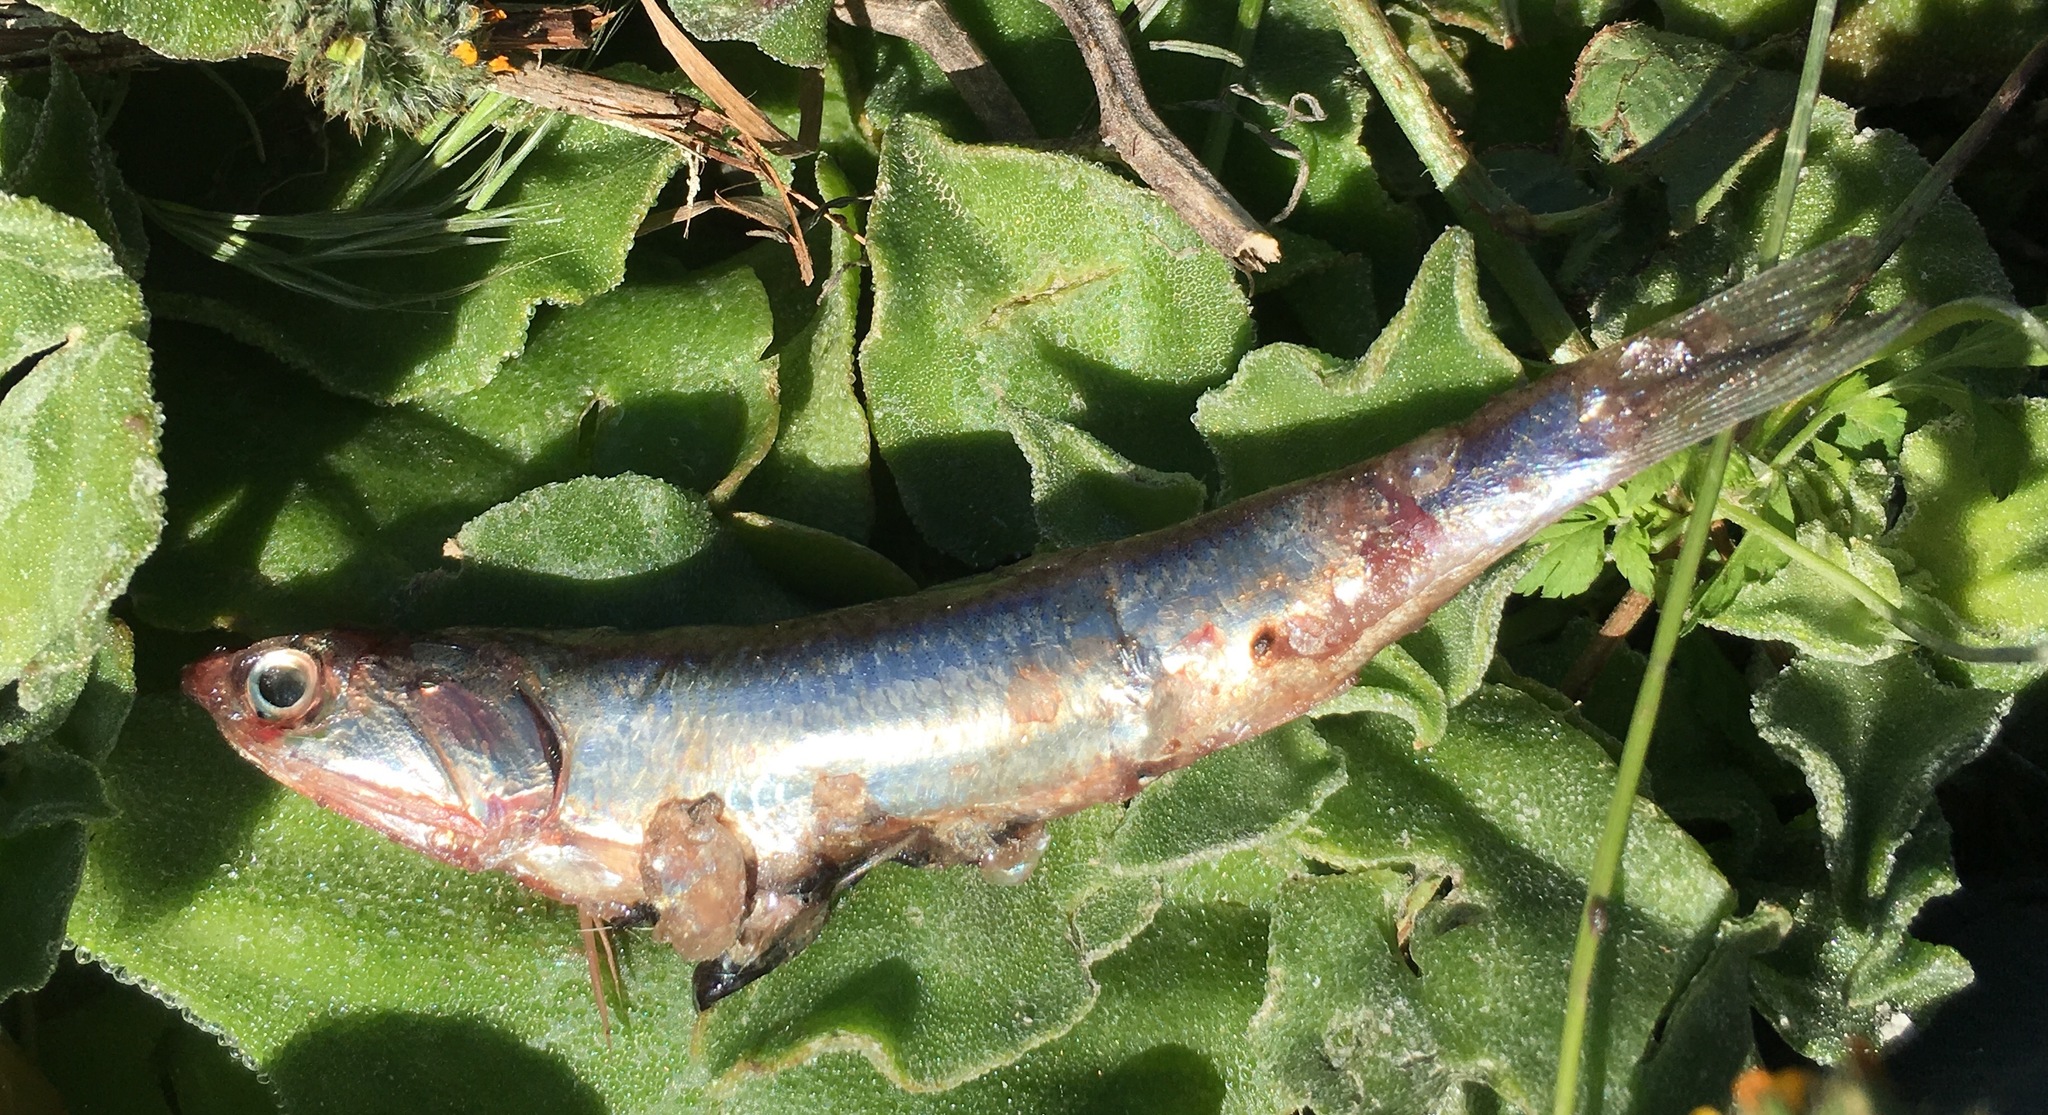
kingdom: Animalia
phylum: Chordata
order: Clupeiformes
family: Engraulidae
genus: Engraulis
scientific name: Engraulis mordax
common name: Northern anchovy
